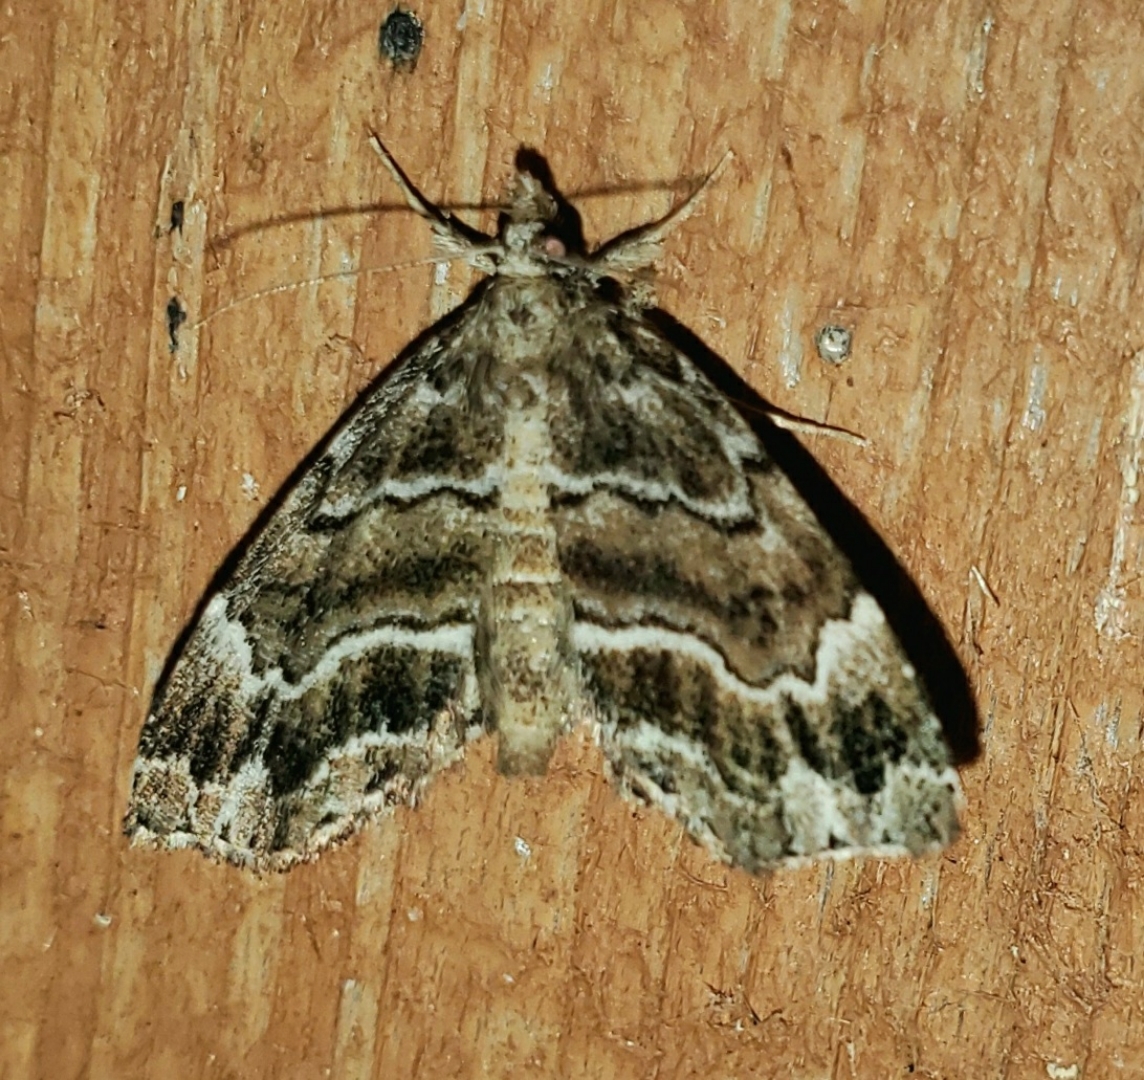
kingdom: Animalia
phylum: Arthropoda
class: Insecta
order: Lepidoptera
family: Erebidae
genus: Cutina
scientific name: Cutina arcuata
